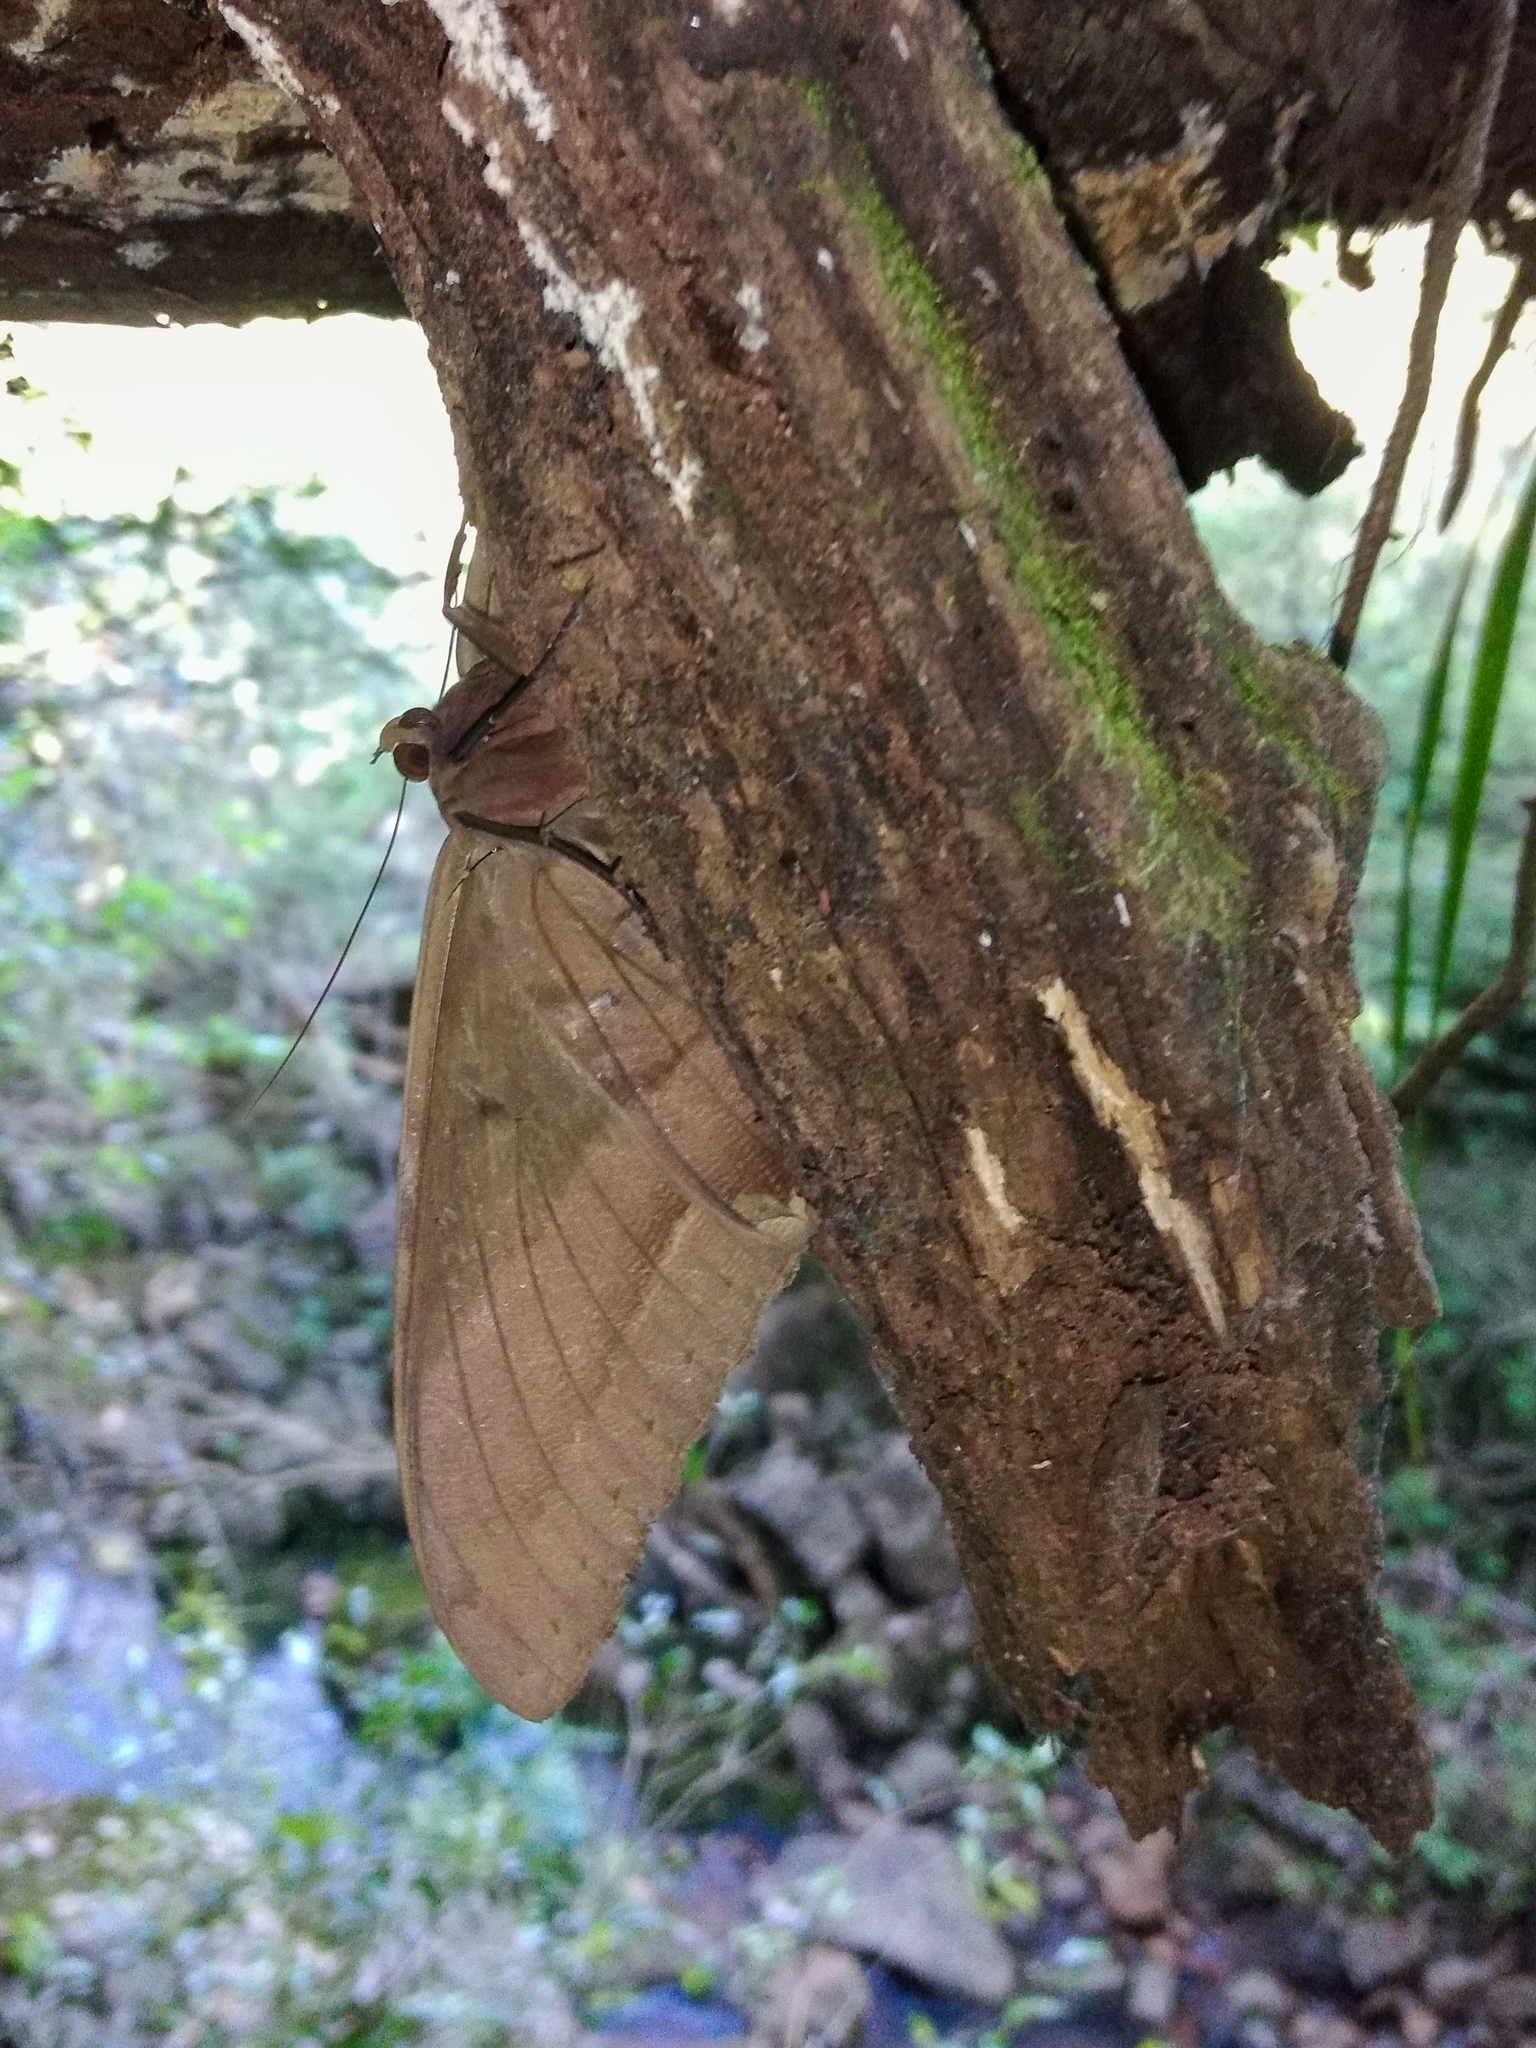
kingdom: Animalia
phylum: Arthropoda
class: Insecta
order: Lepidoptera
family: Erebidae
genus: Ascalapha
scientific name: Ascalapha odorata
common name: Black witch
